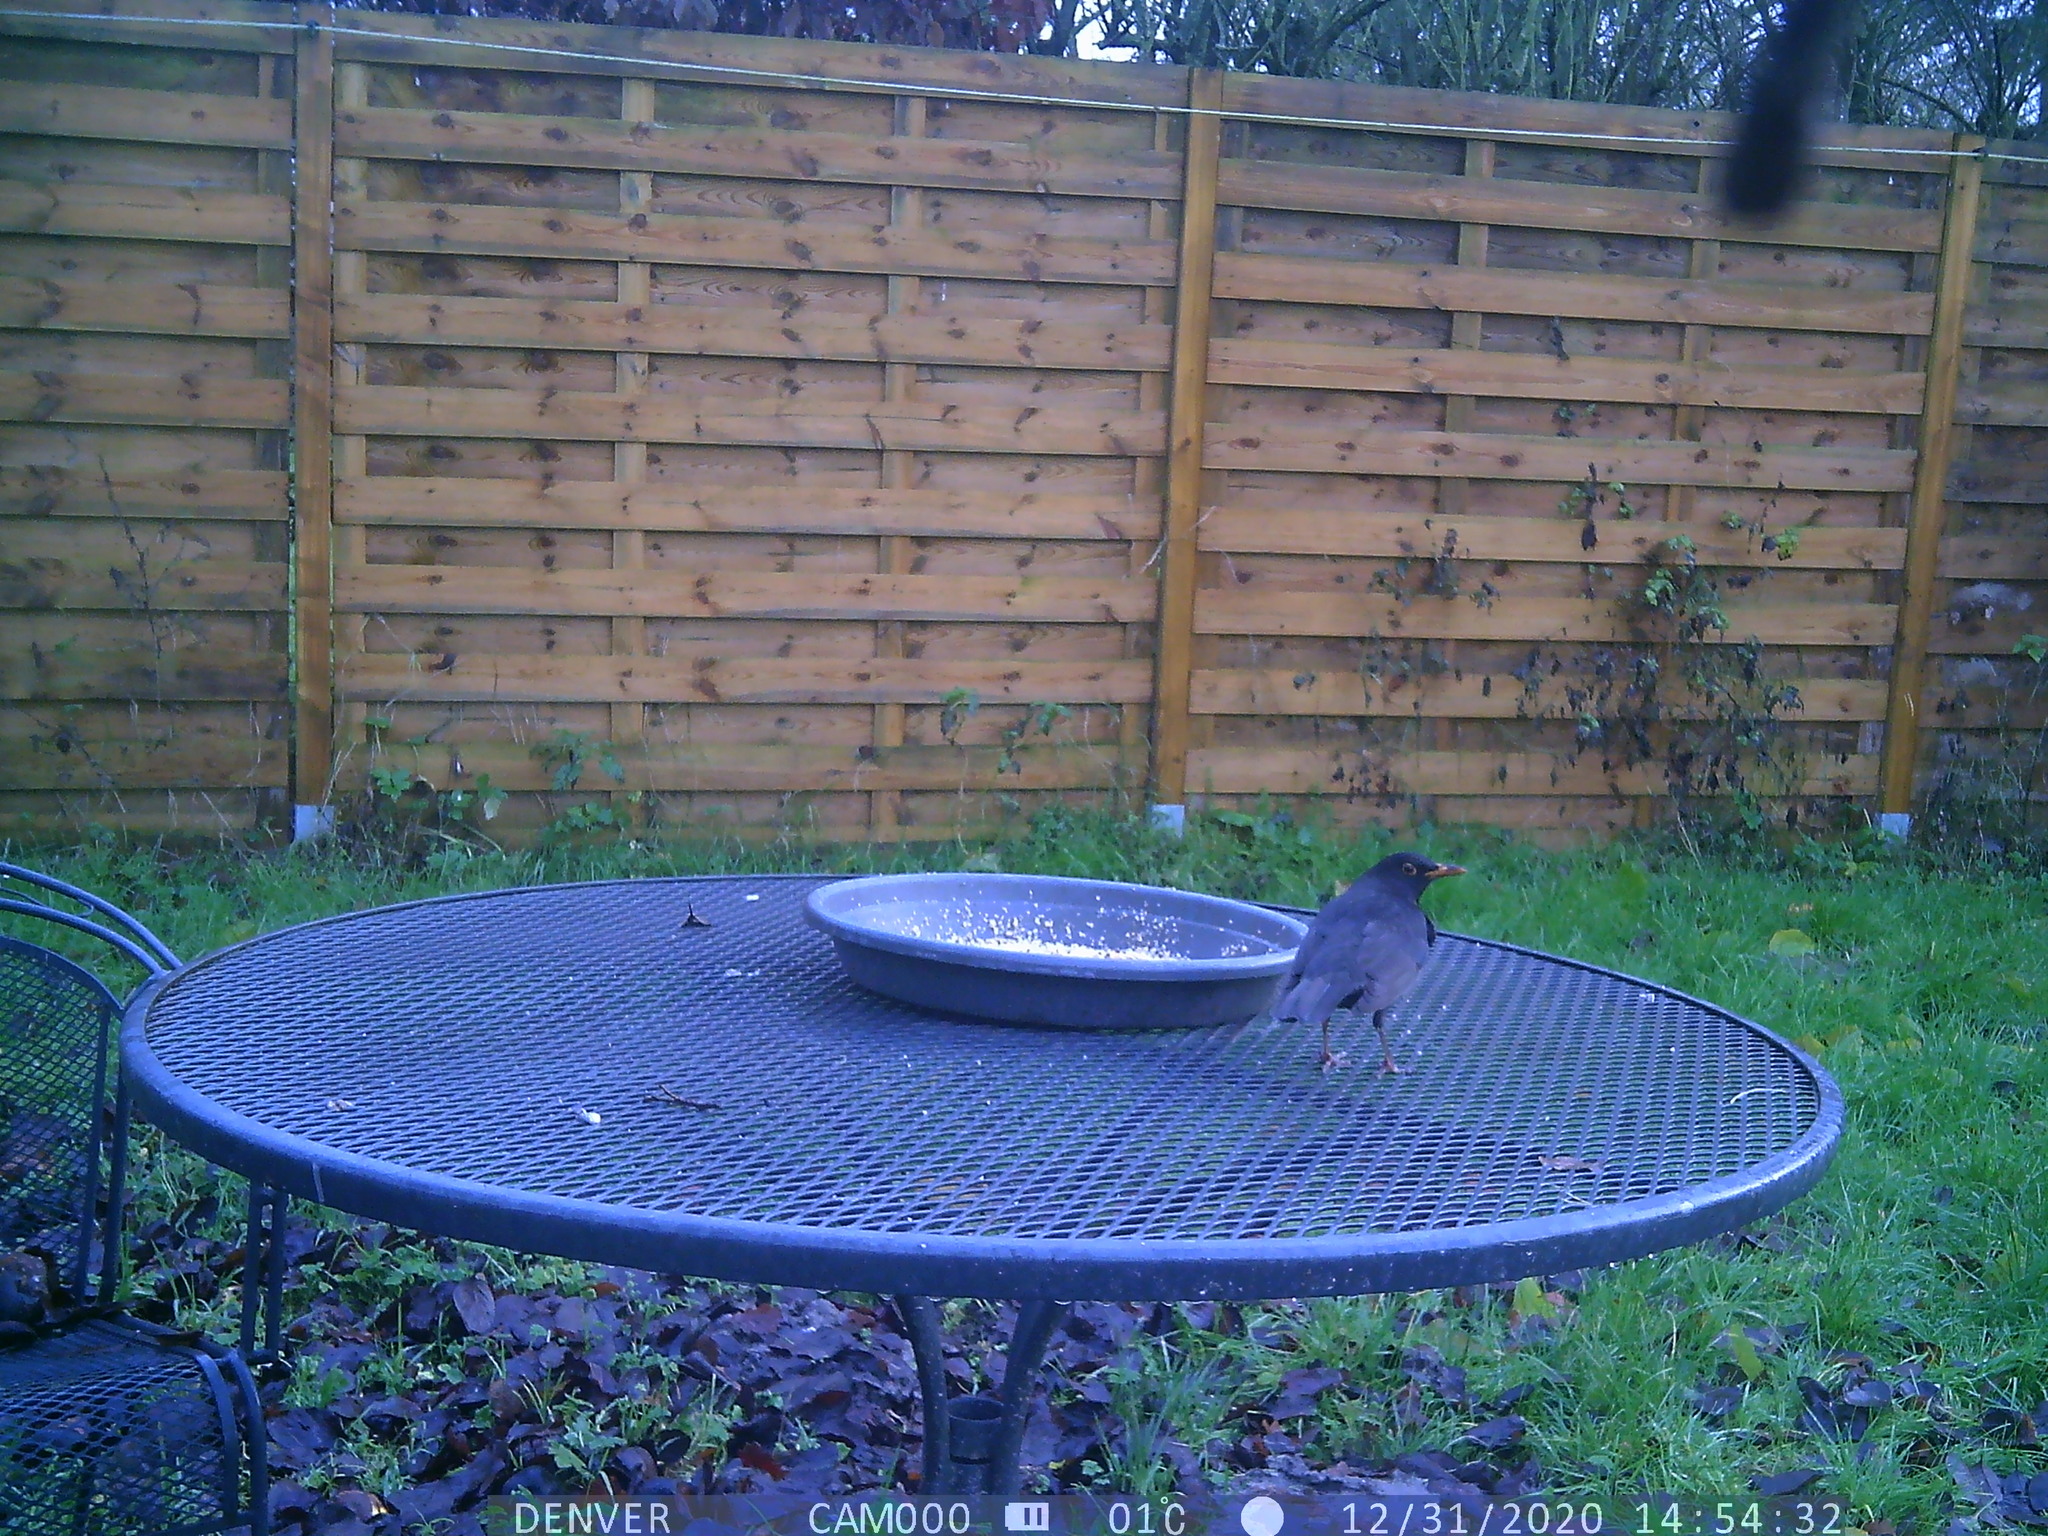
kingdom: Animalia
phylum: Chordata
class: Aves
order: Passeriformes
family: Turdidae
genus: Turdus
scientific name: Turdus merula
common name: Common blackbird
